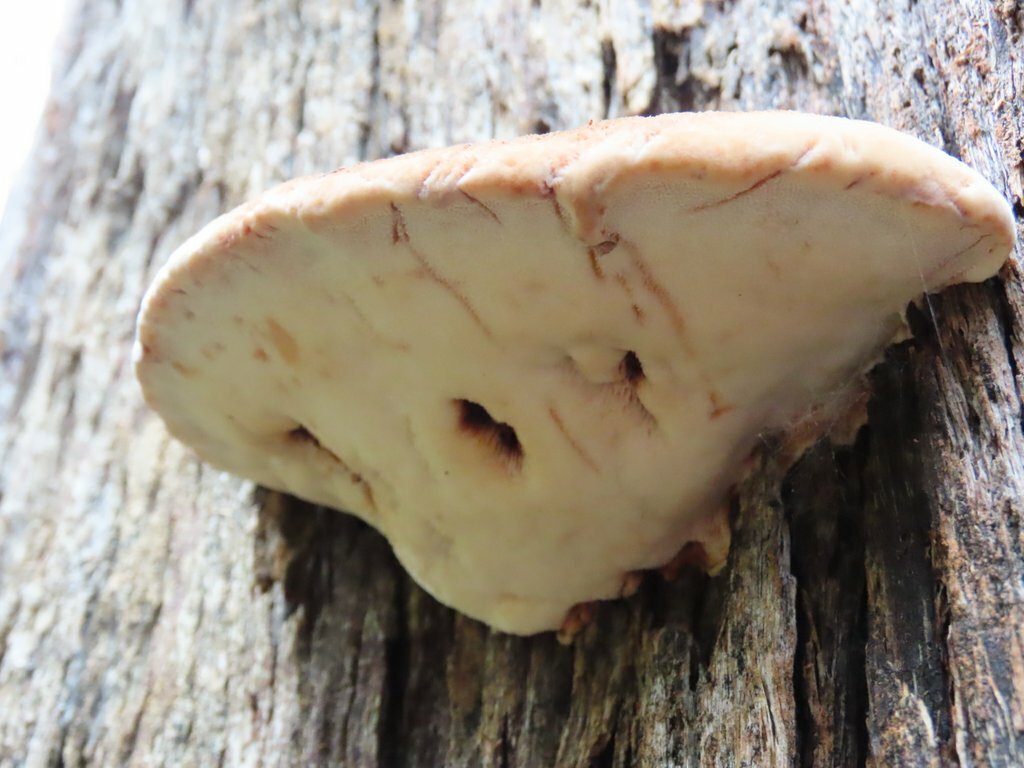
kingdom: Fungi
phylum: Basidiomycota
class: Agaricomycetes
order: Polyporales
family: Dacryobolaceae
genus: Oligoporus
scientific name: Oligoporus pelliculosus
